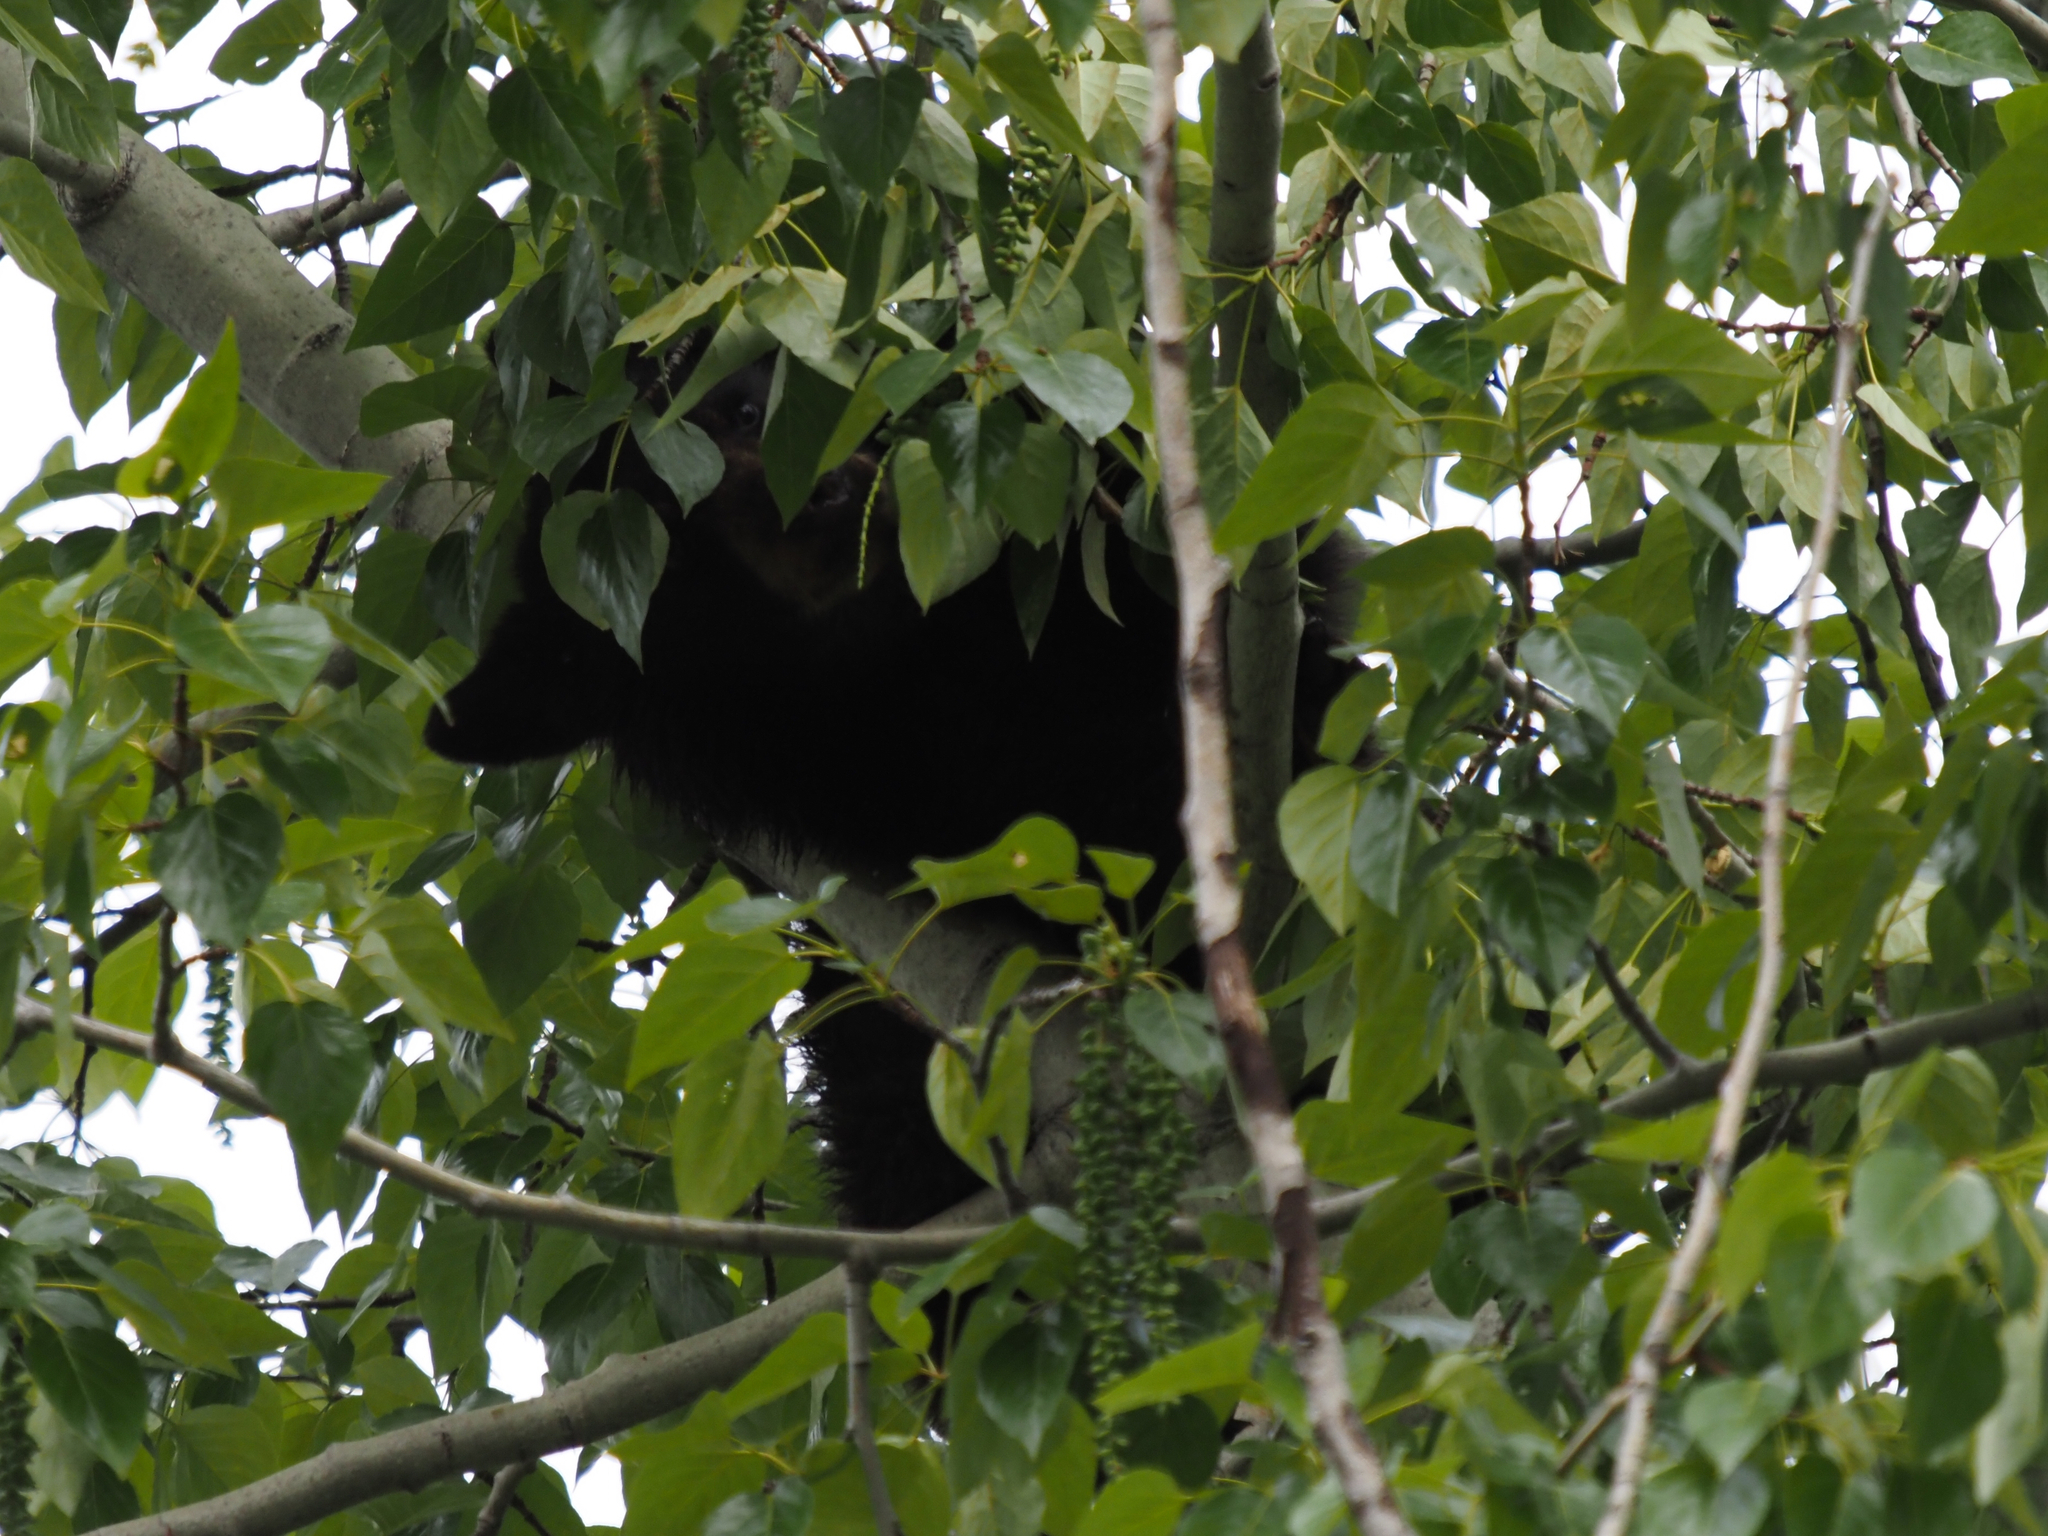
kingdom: Animalia
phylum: Chordata
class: Mammalia
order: Carnivora
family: Ursidae
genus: Ursus
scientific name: Ursus americanus
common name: American black bear
